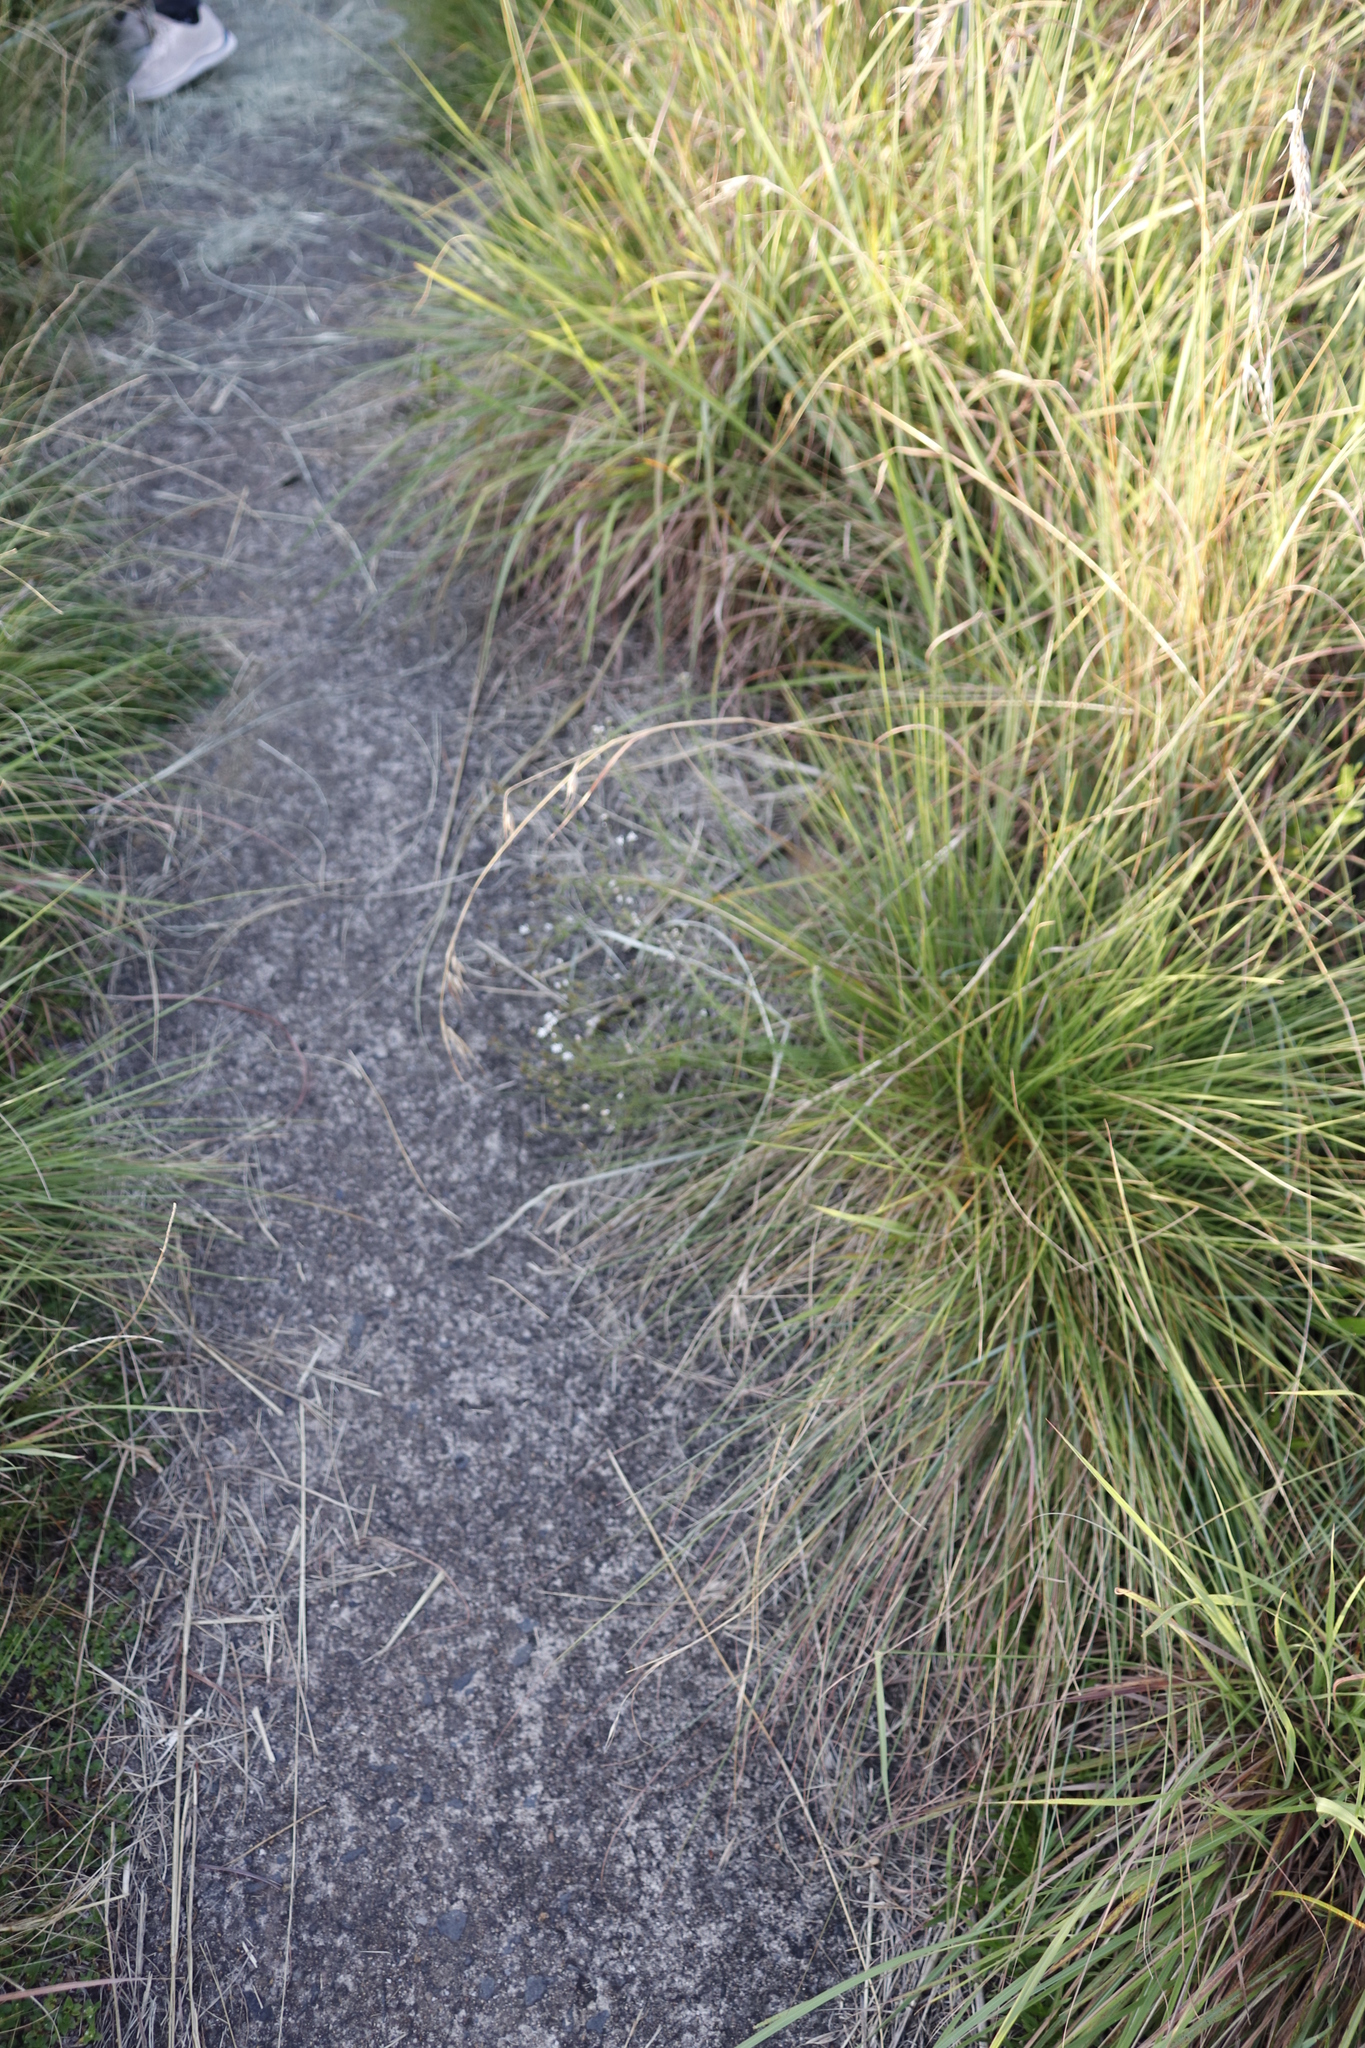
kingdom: Plantae
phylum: Tracheophyta
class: Liliopsida
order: Poales
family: Poaceae
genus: Themeda
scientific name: Themeda triandra
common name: Kangaroo grass
